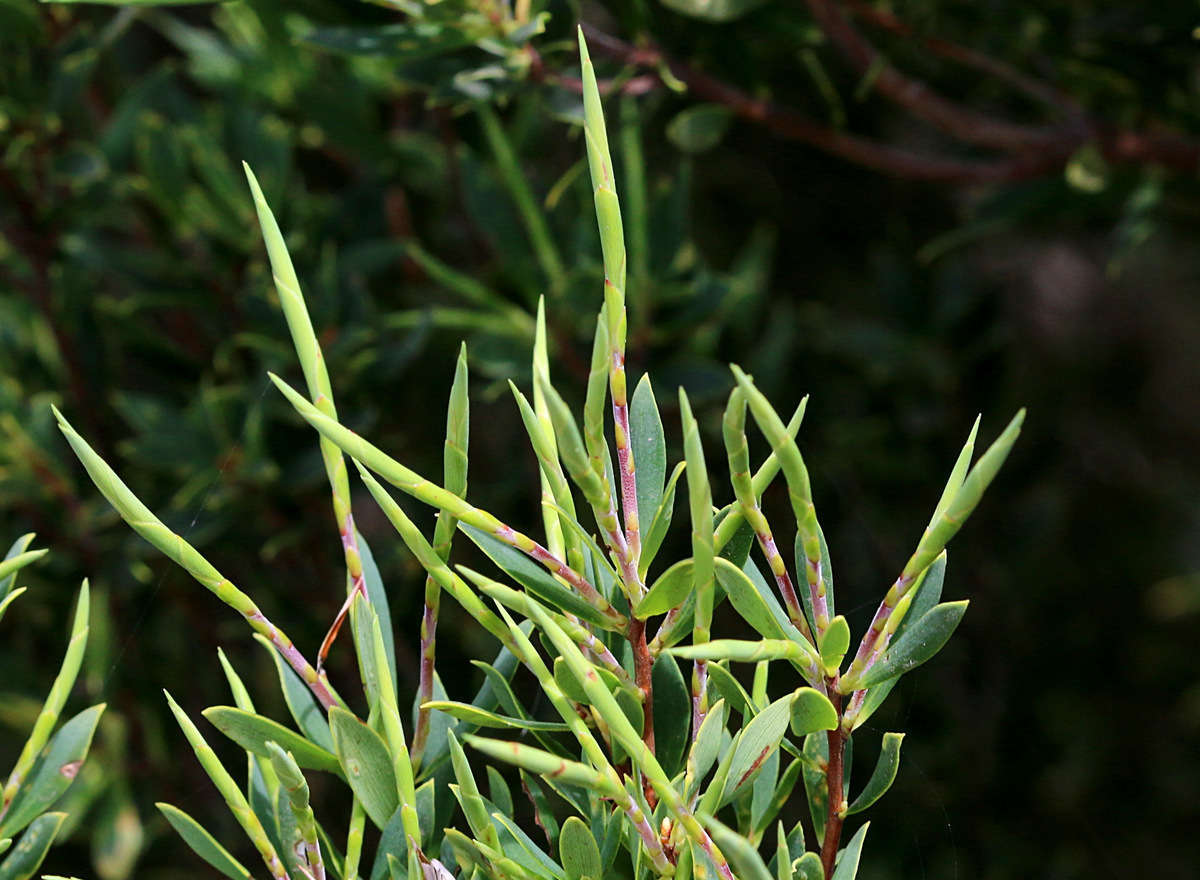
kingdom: Plantae
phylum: Tracheophyta
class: Magnoliopsida
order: Ericales
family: Ericaceae
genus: Leptecophylla
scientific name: Leptecophylla parvifolia
